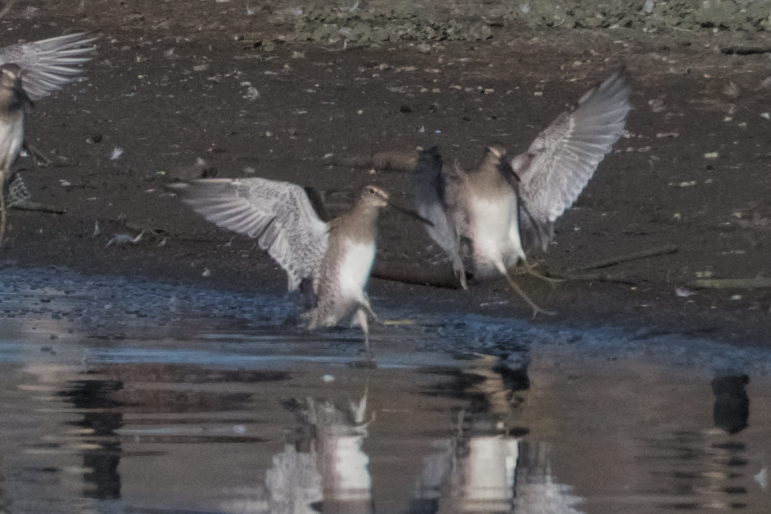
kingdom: Animalia
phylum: Chordata
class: Aves
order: Charadriiformes
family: Scolopacidae
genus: Limnodromus
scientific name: Limnodromus scolopaceus
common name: Long-billed dowitcher
